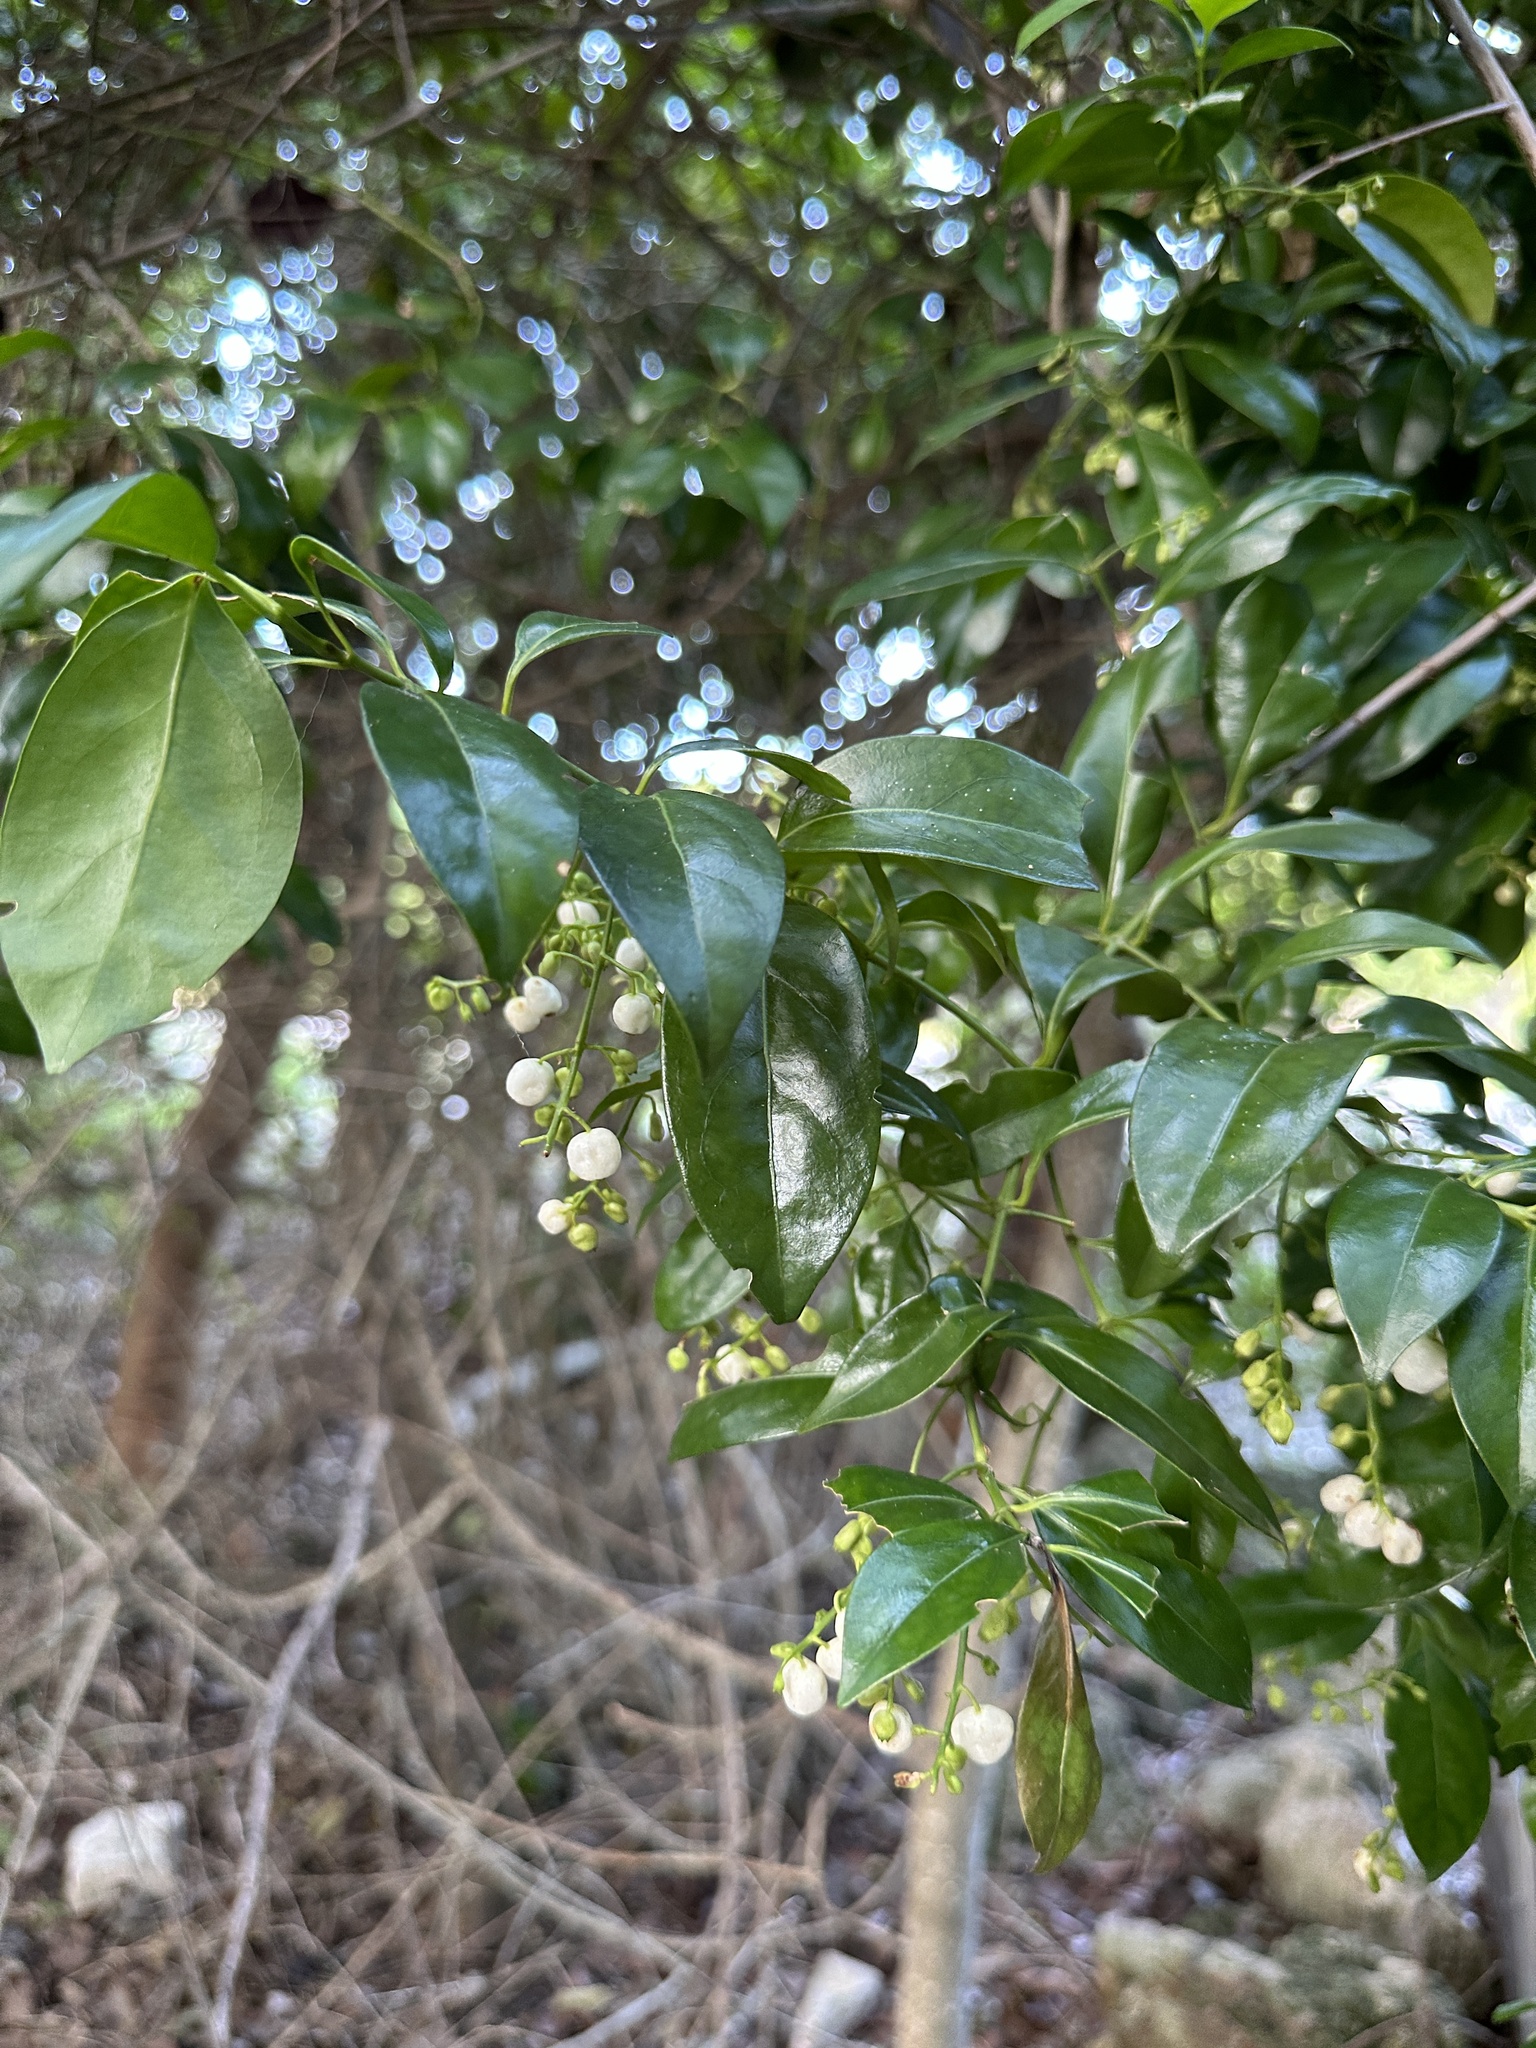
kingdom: Plantae
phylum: Tracheophyta
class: Magnoliopsida
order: Gentianales
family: Rubiaceae
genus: Chiococca
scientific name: Chiococca alba
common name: Snowberry
